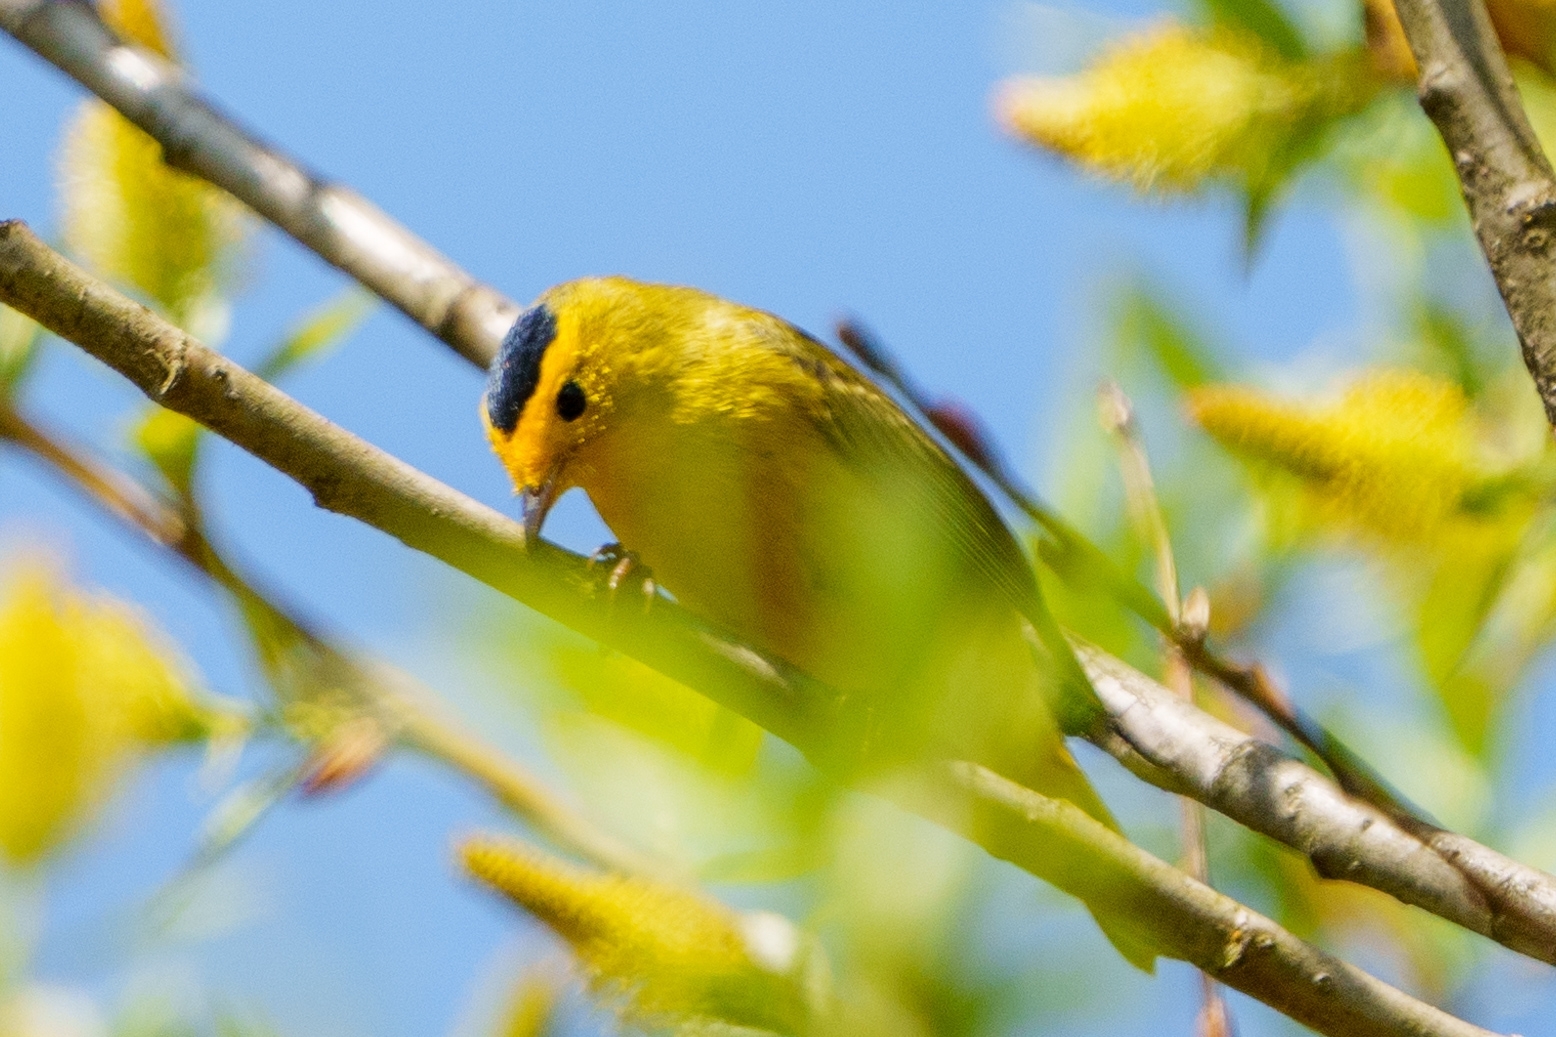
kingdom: Animalia
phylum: Chordata
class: Aves
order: Passeriformes
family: Parulidae
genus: Cardellina
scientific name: Cardellina pusilla
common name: Wilson's warbler
